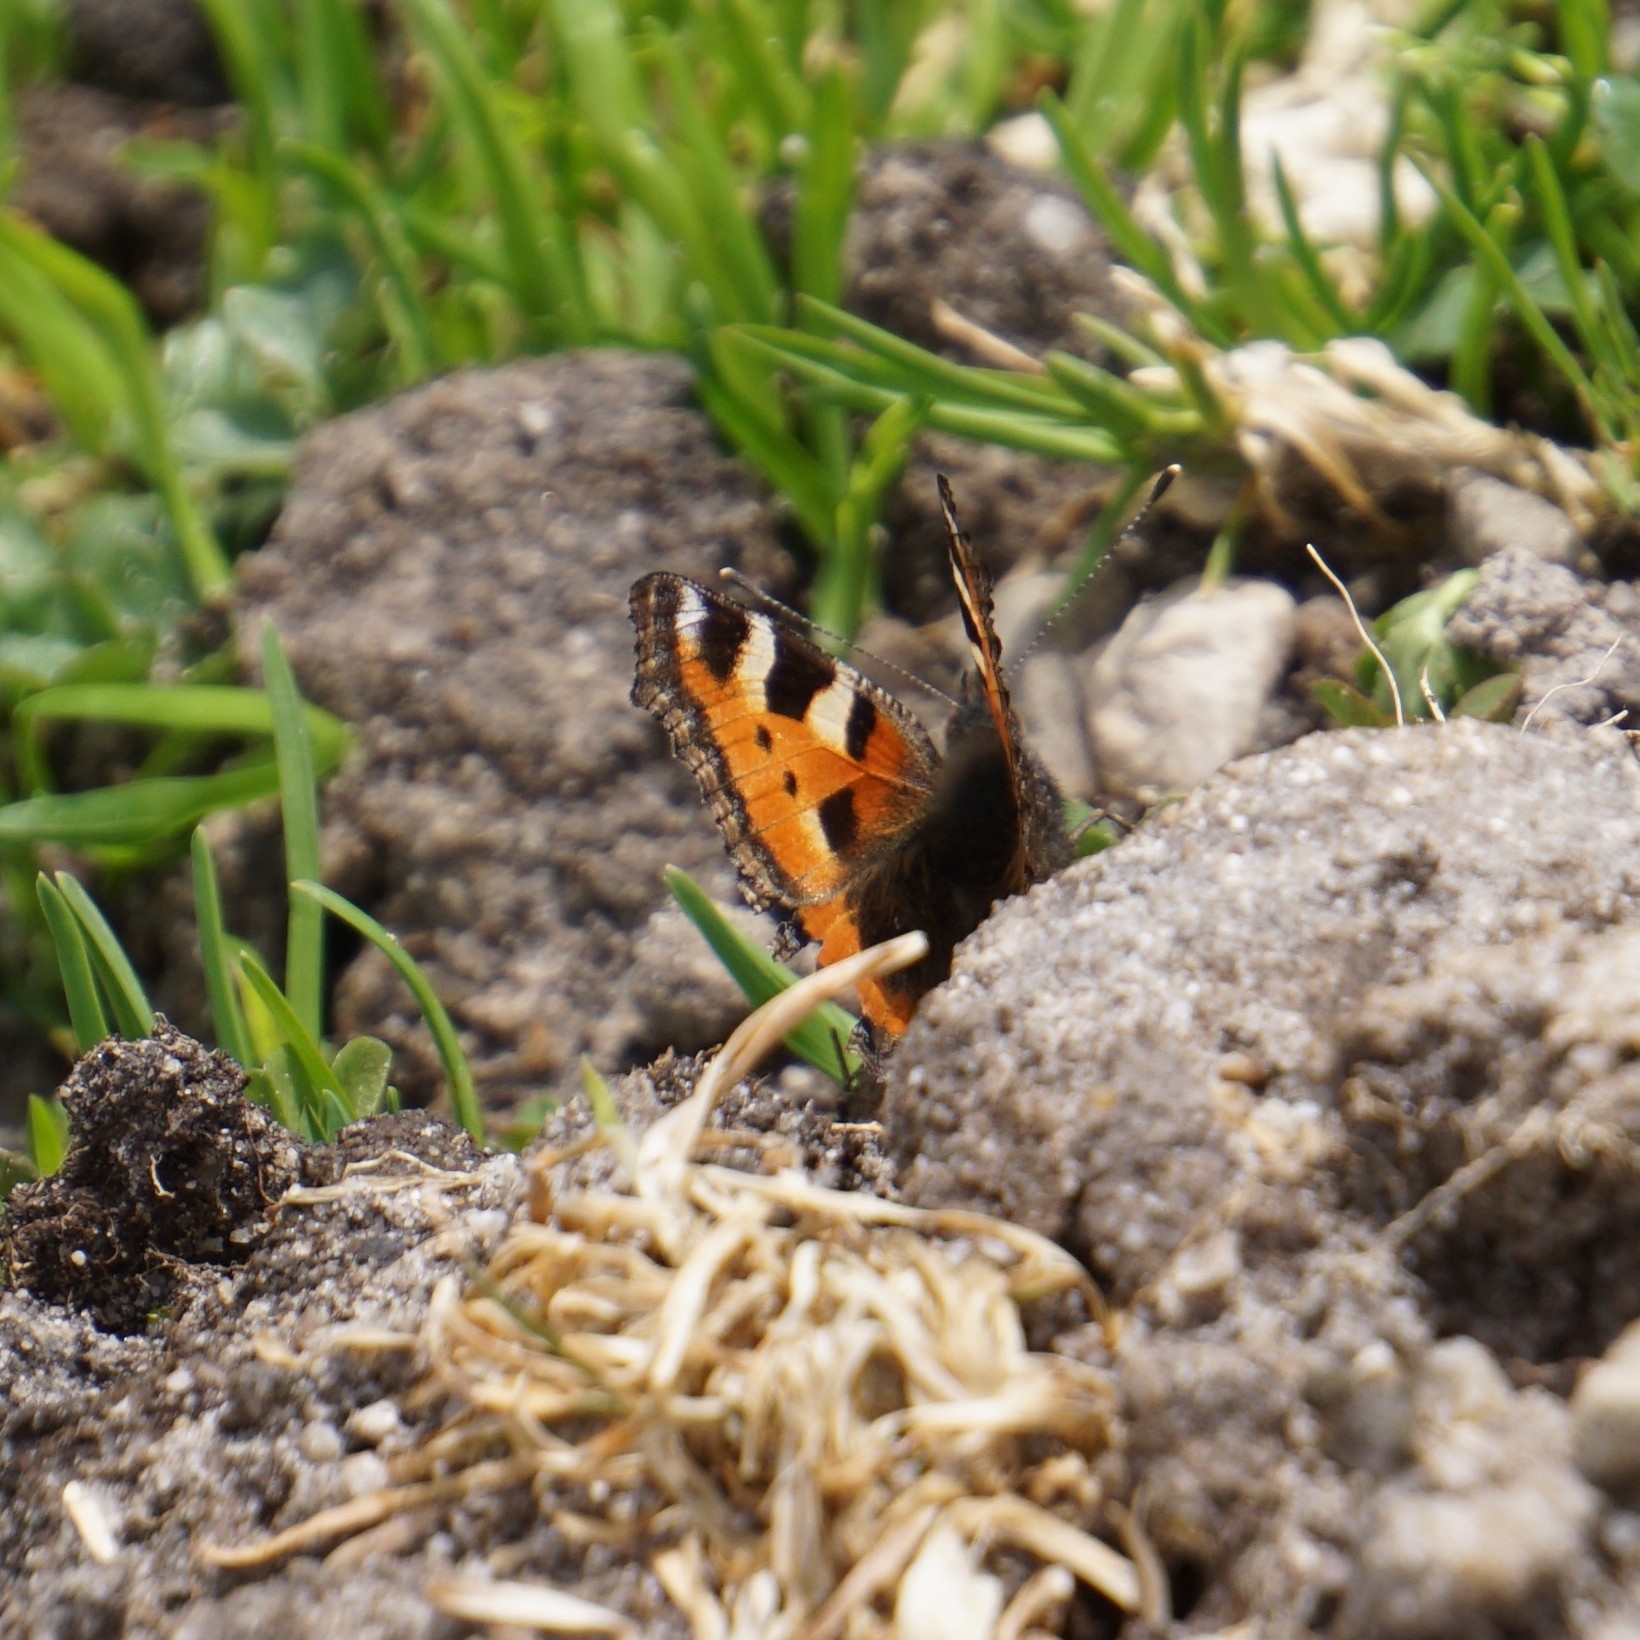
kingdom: Animalia
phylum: Arthropoda
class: Insecta
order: Lepidoptera
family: Nymphalidae
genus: Aglais
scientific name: Aglais urticae
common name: Small tortoiseshell
